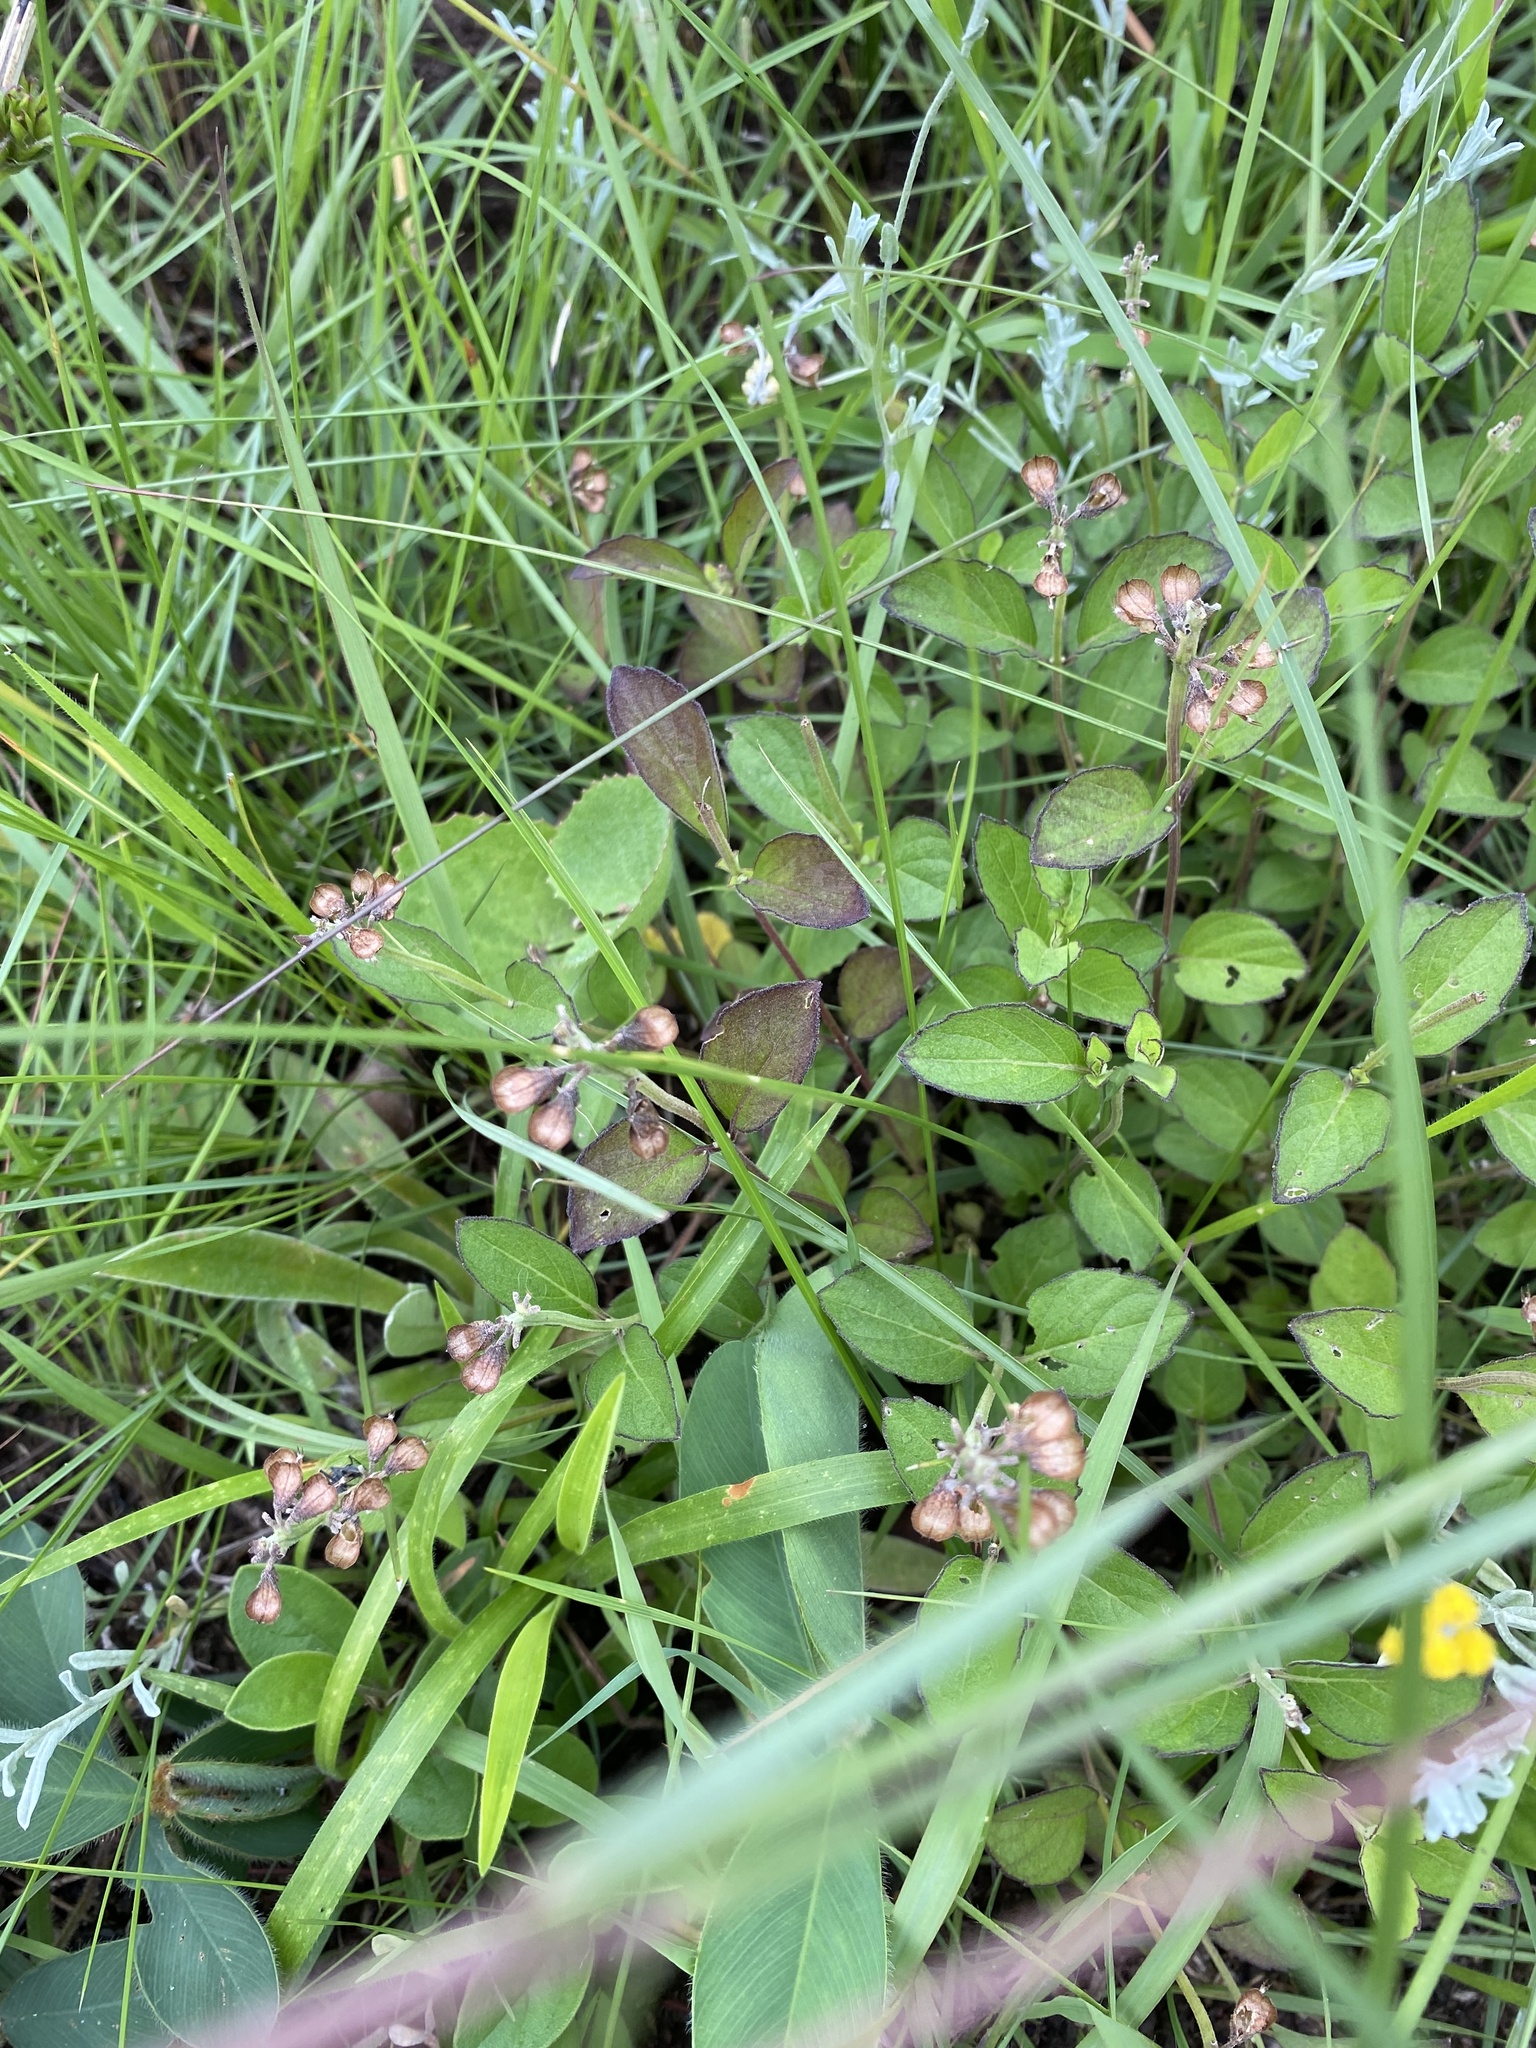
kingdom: Plantae
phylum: Tracheophyta
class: Magnoliopsida
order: Lamiales
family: Lamiaceae
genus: Ocimum
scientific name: Ocimum obovatum
